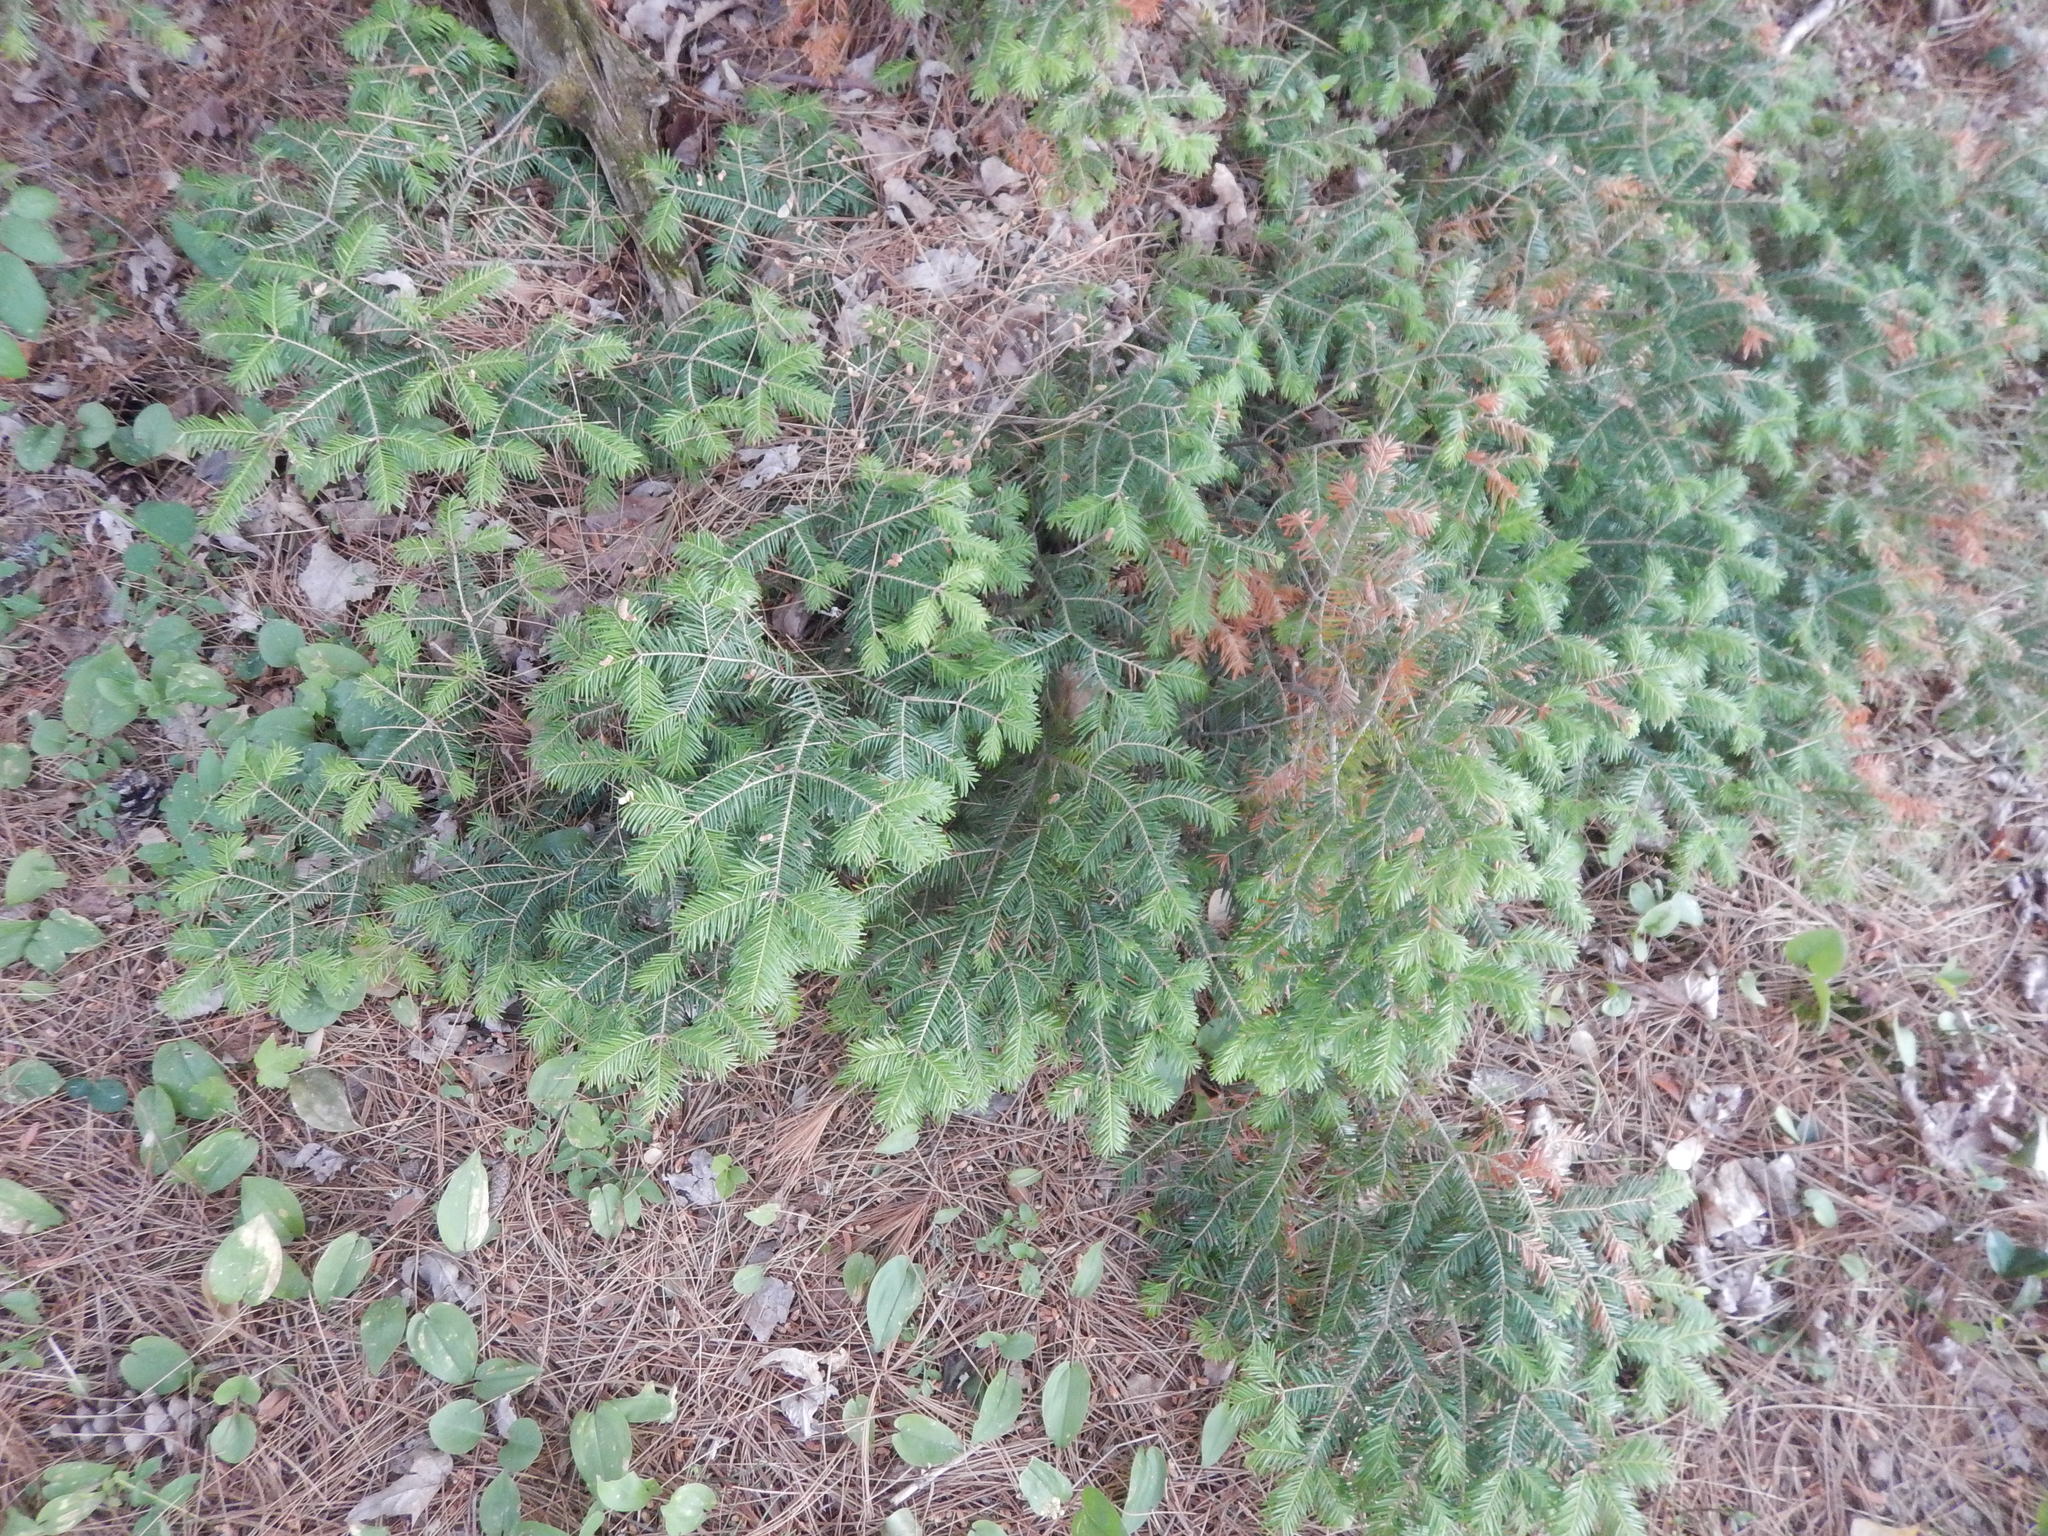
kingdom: Plantae
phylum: Tracheophyta
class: Pinopsida
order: Pinales
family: Pinaceae
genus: Abies
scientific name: Abies balsamea
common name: Balsam fir
